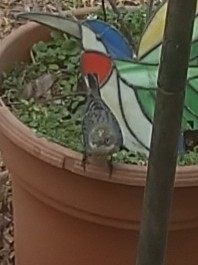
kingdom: Animalia
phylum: Chordata
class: Aves
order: Passeriformes
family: Parulidae
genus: Setophaga
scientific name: Setophaga coronata
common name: Myrtle warbler
